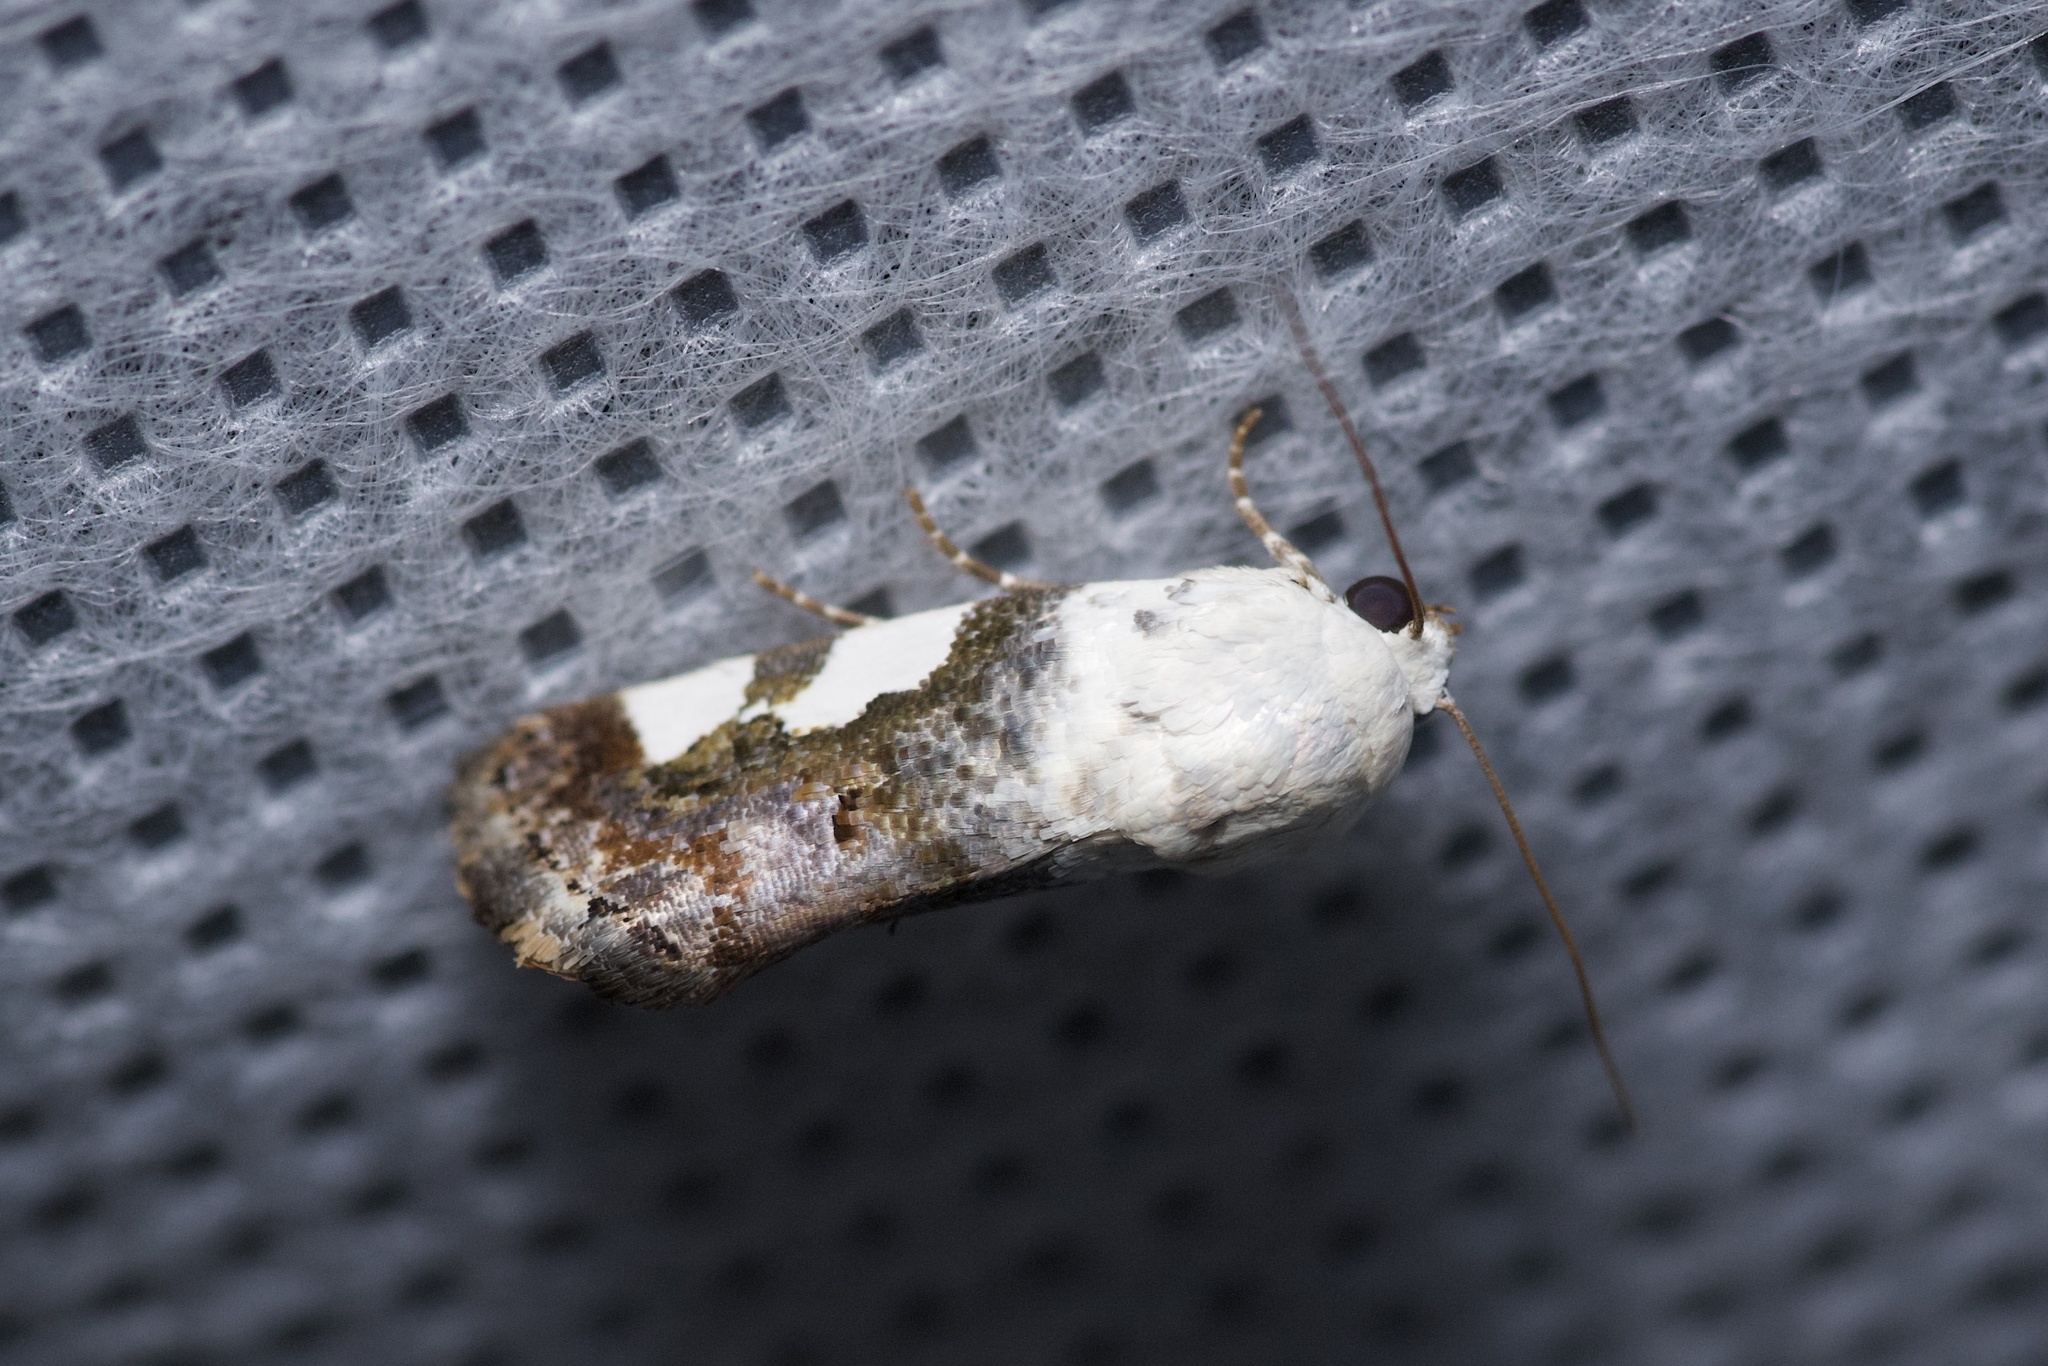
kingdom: Animalia
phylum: Arthropoda
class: Insecta
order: Lepidoptera
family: Noctuidae
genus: Acontia
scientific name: Acontia quadriplaga
